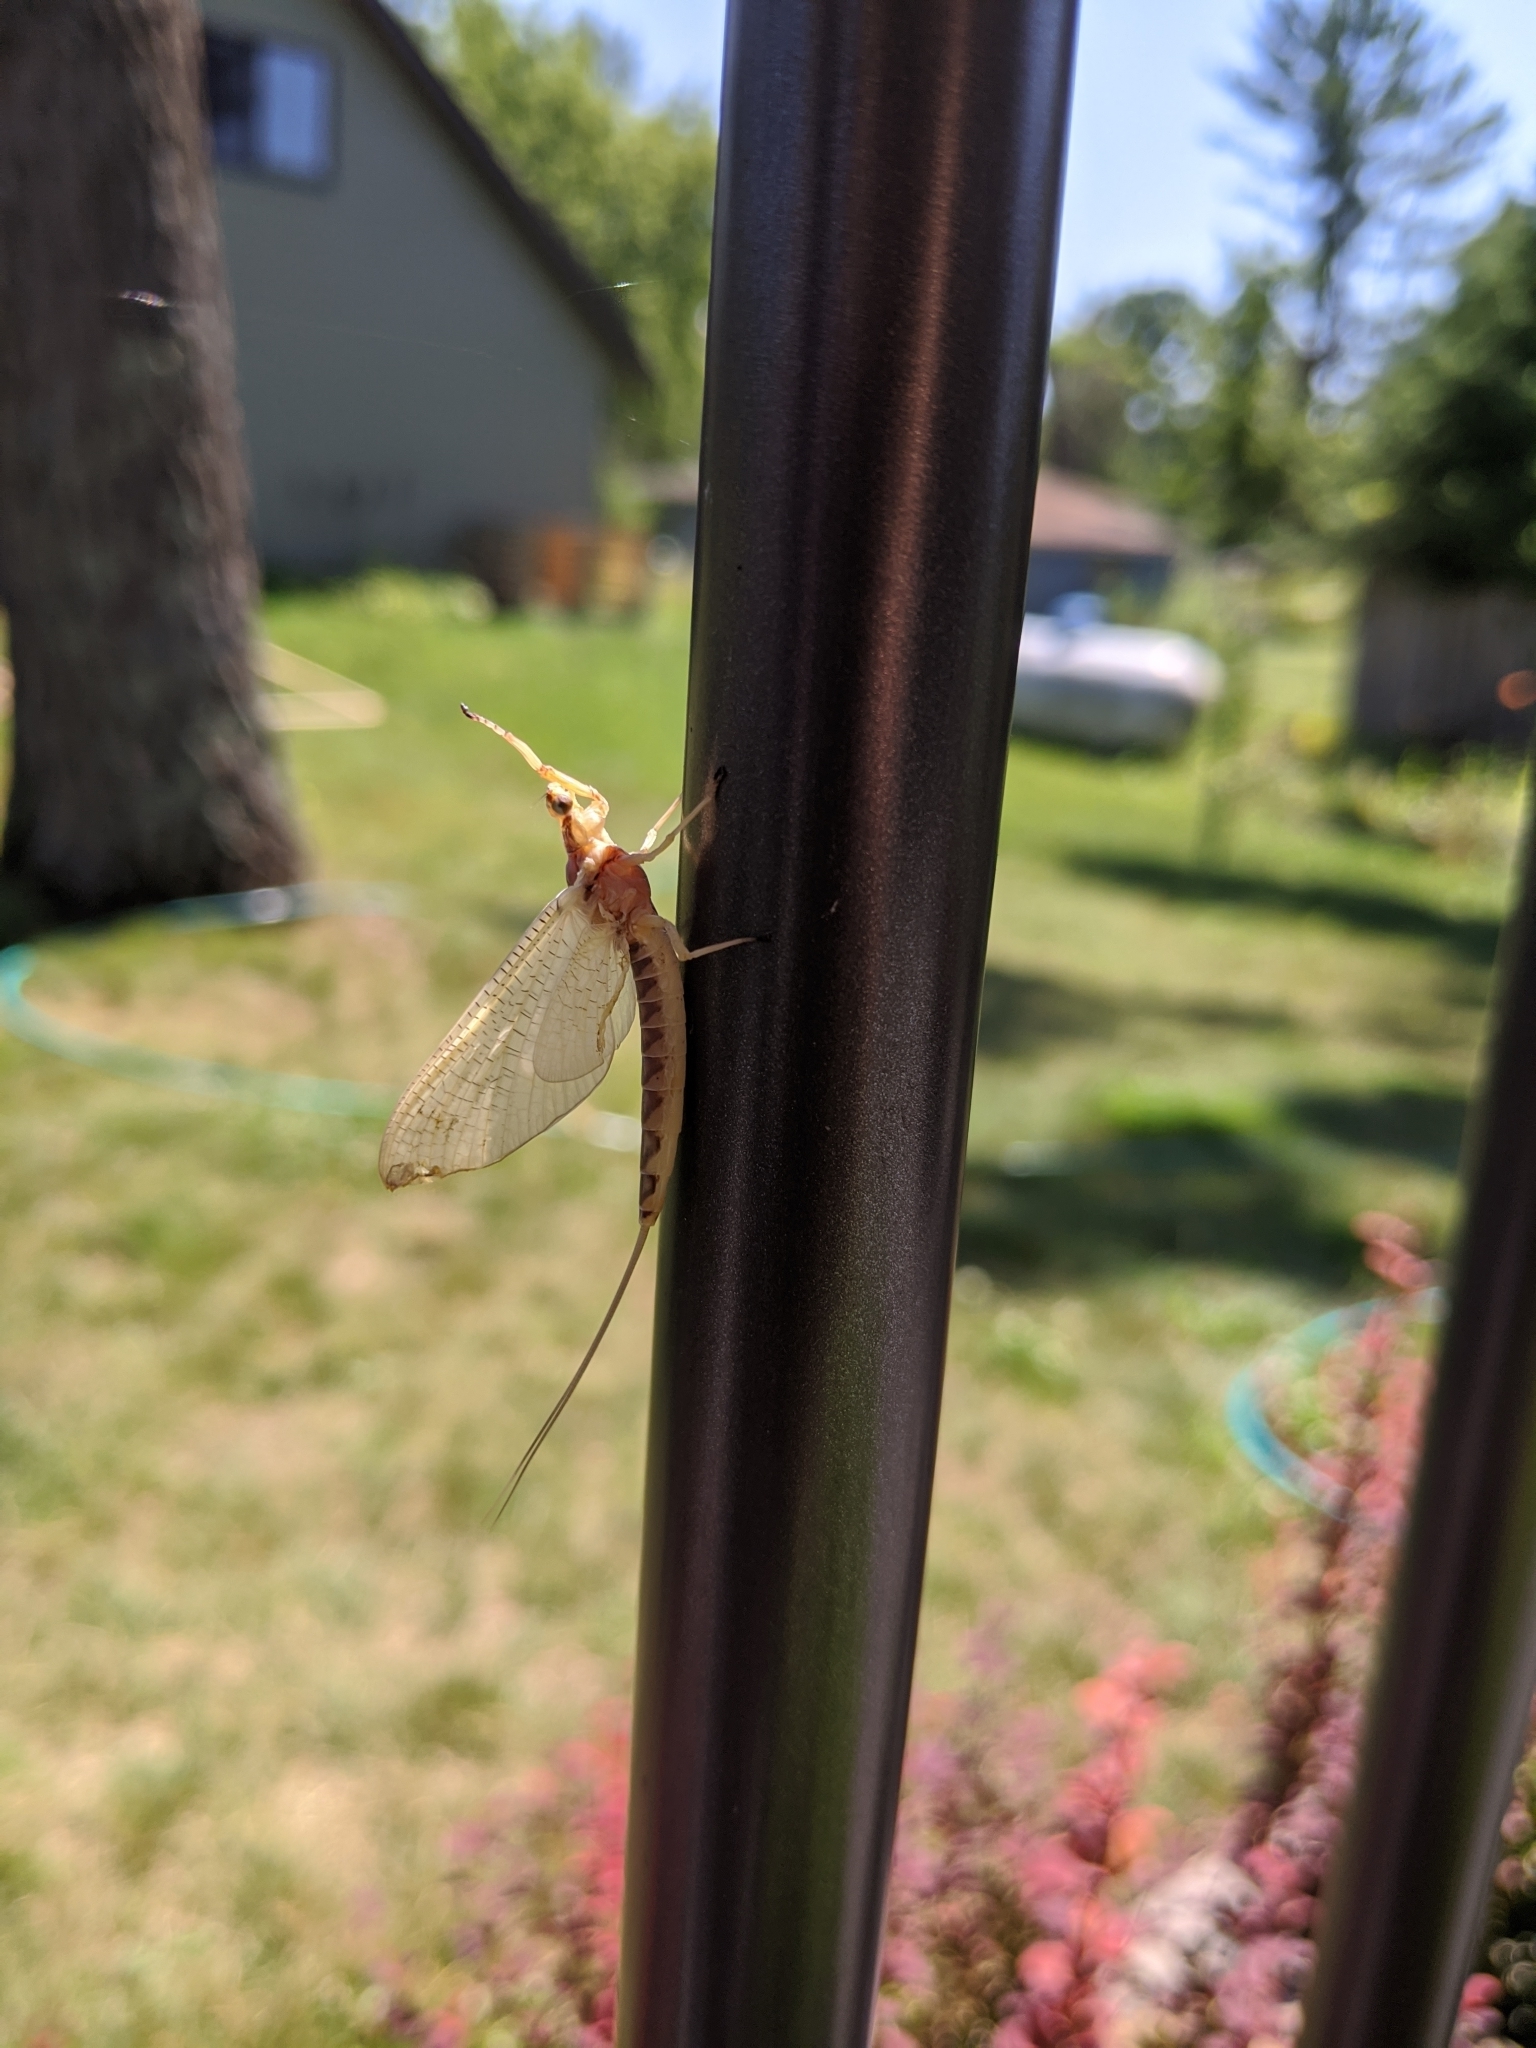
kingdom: Animalia
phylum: Arthropoda
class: Insecta
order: Ephemeroptera
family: Ephemeridae
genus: Hexagenia
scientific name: Hexagenia limbata
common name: Giant mayfly
